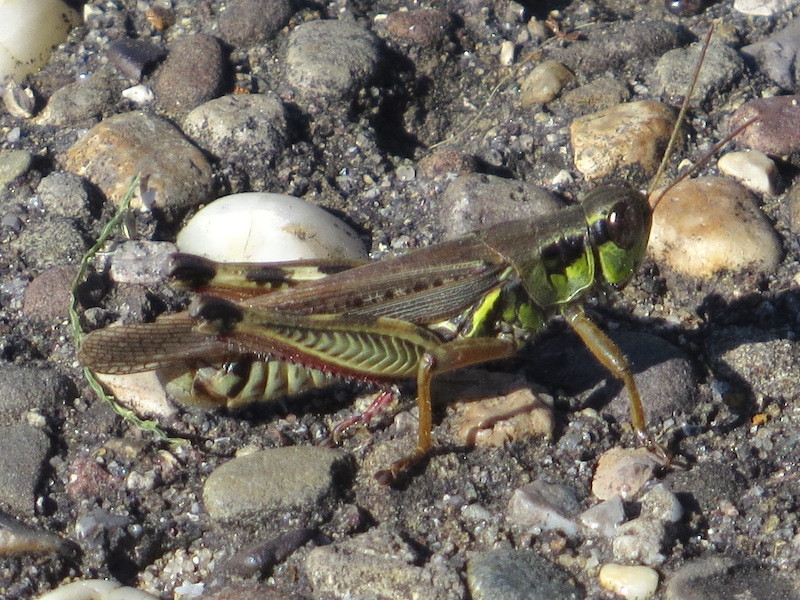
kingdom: Animalia
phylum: Arthropoda
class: Insecta
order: Orthoptera
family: Acrididae
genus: Melanoplus
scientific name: Melanoplus femurrubrum
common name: Red-legged grasshopper
